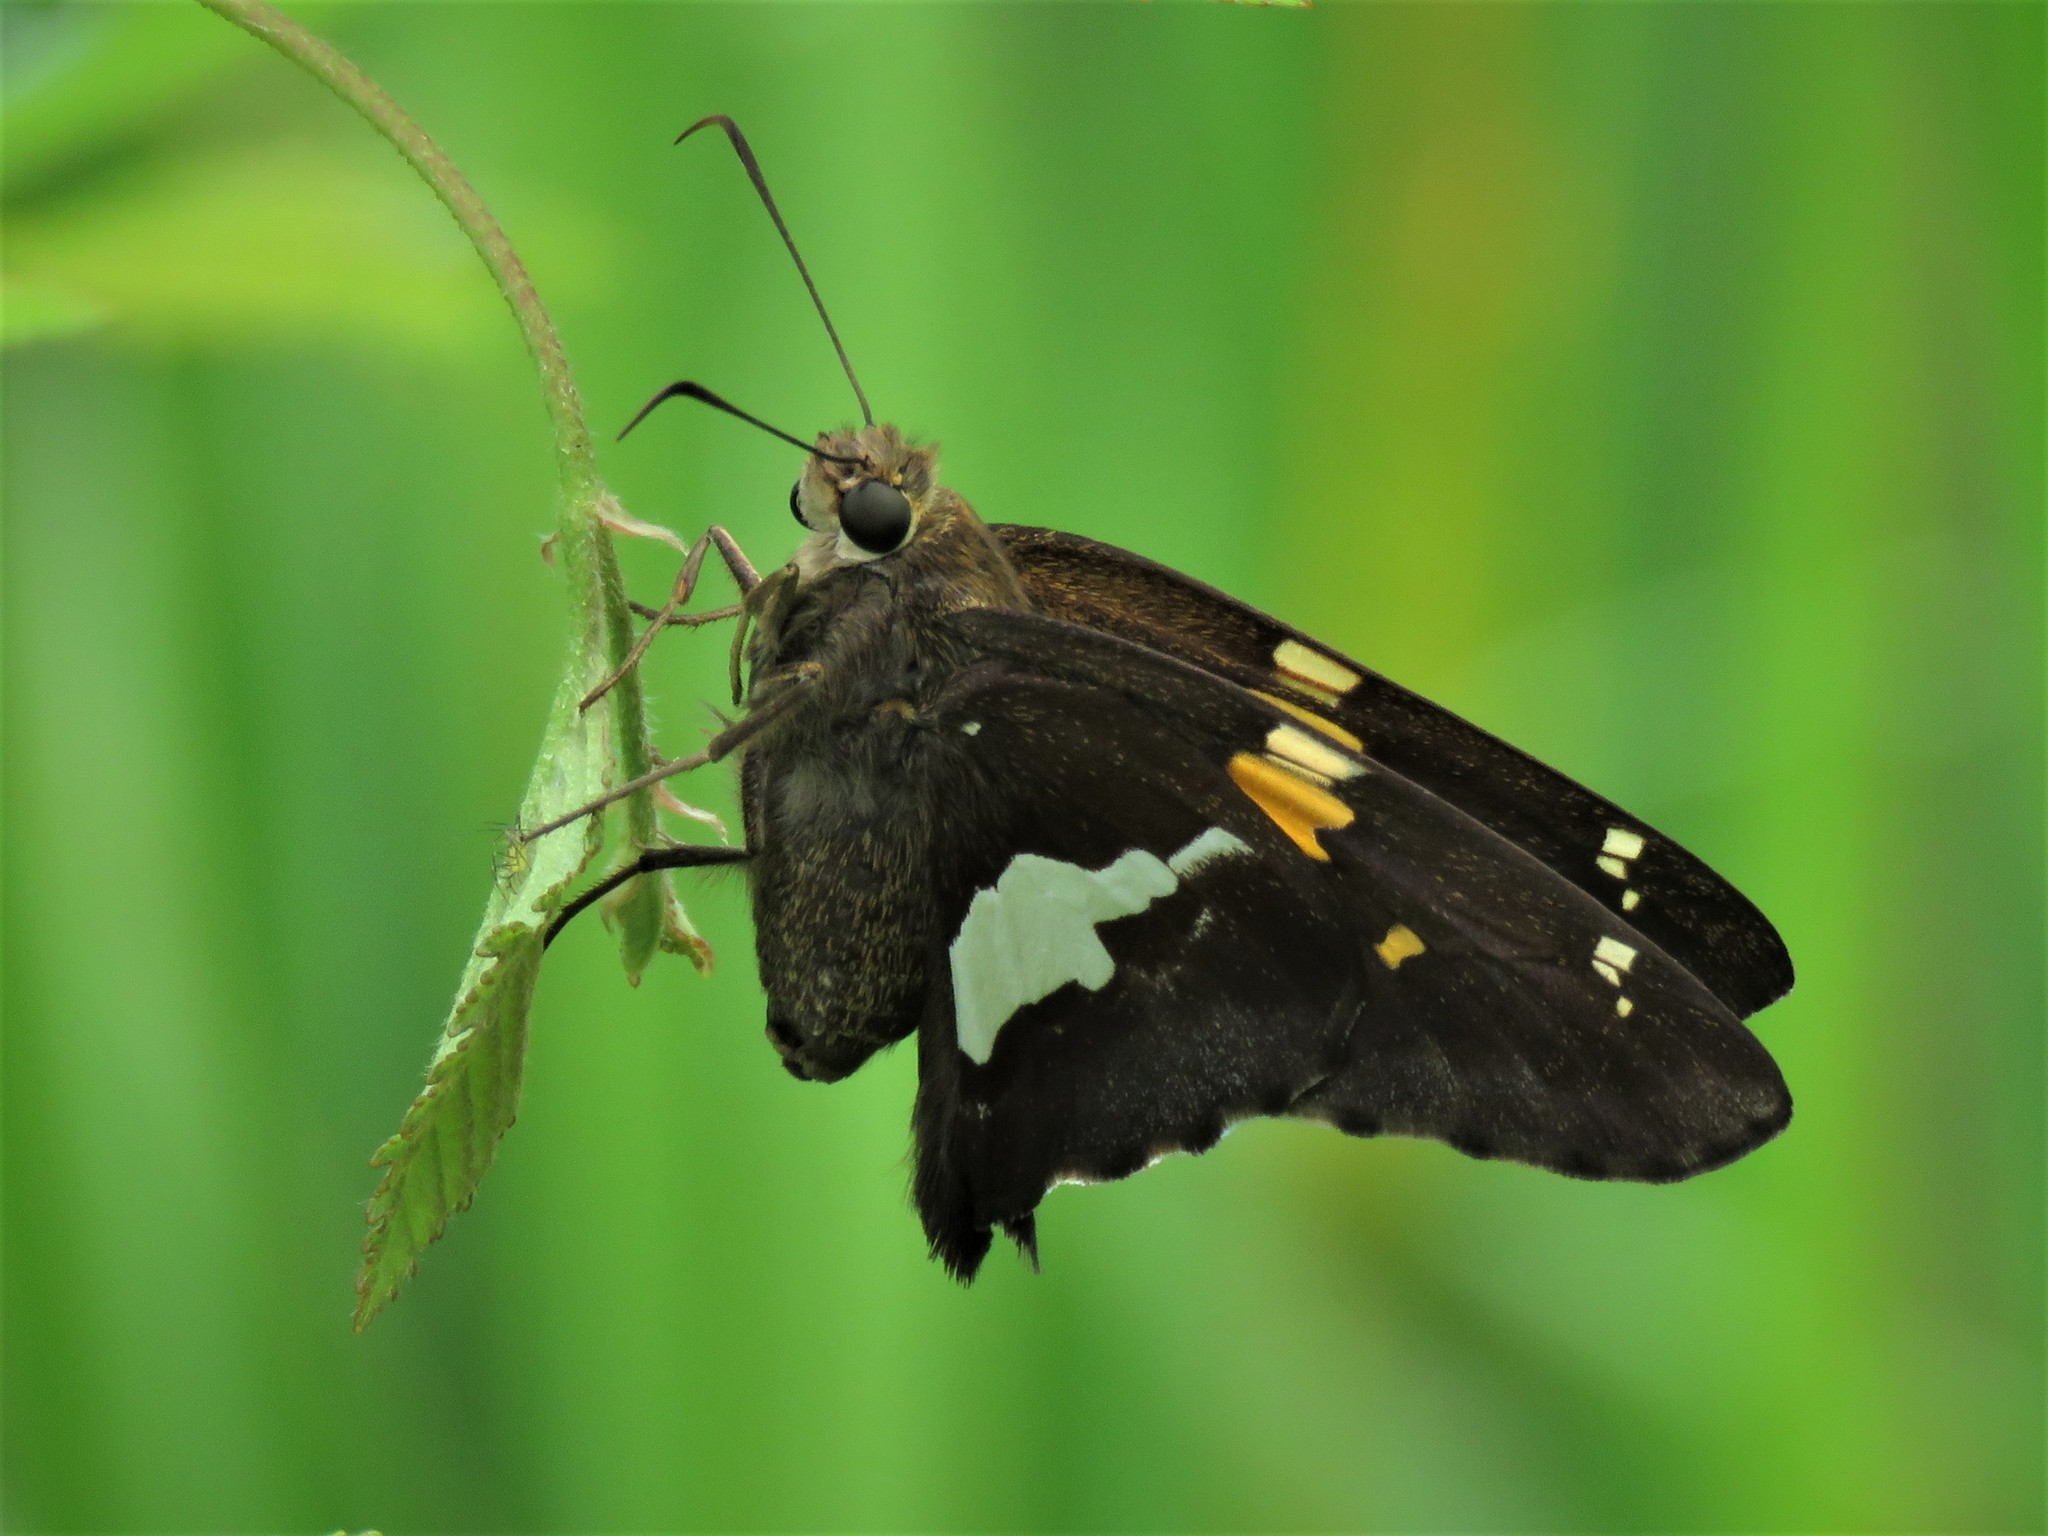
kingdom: Animalia
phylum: Arthropoda
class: Insecta
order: Lepidoptera
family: Hesperiidae
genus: Epargyreus
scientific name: Epargyreus clarus
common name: Silver-spotted skipper
